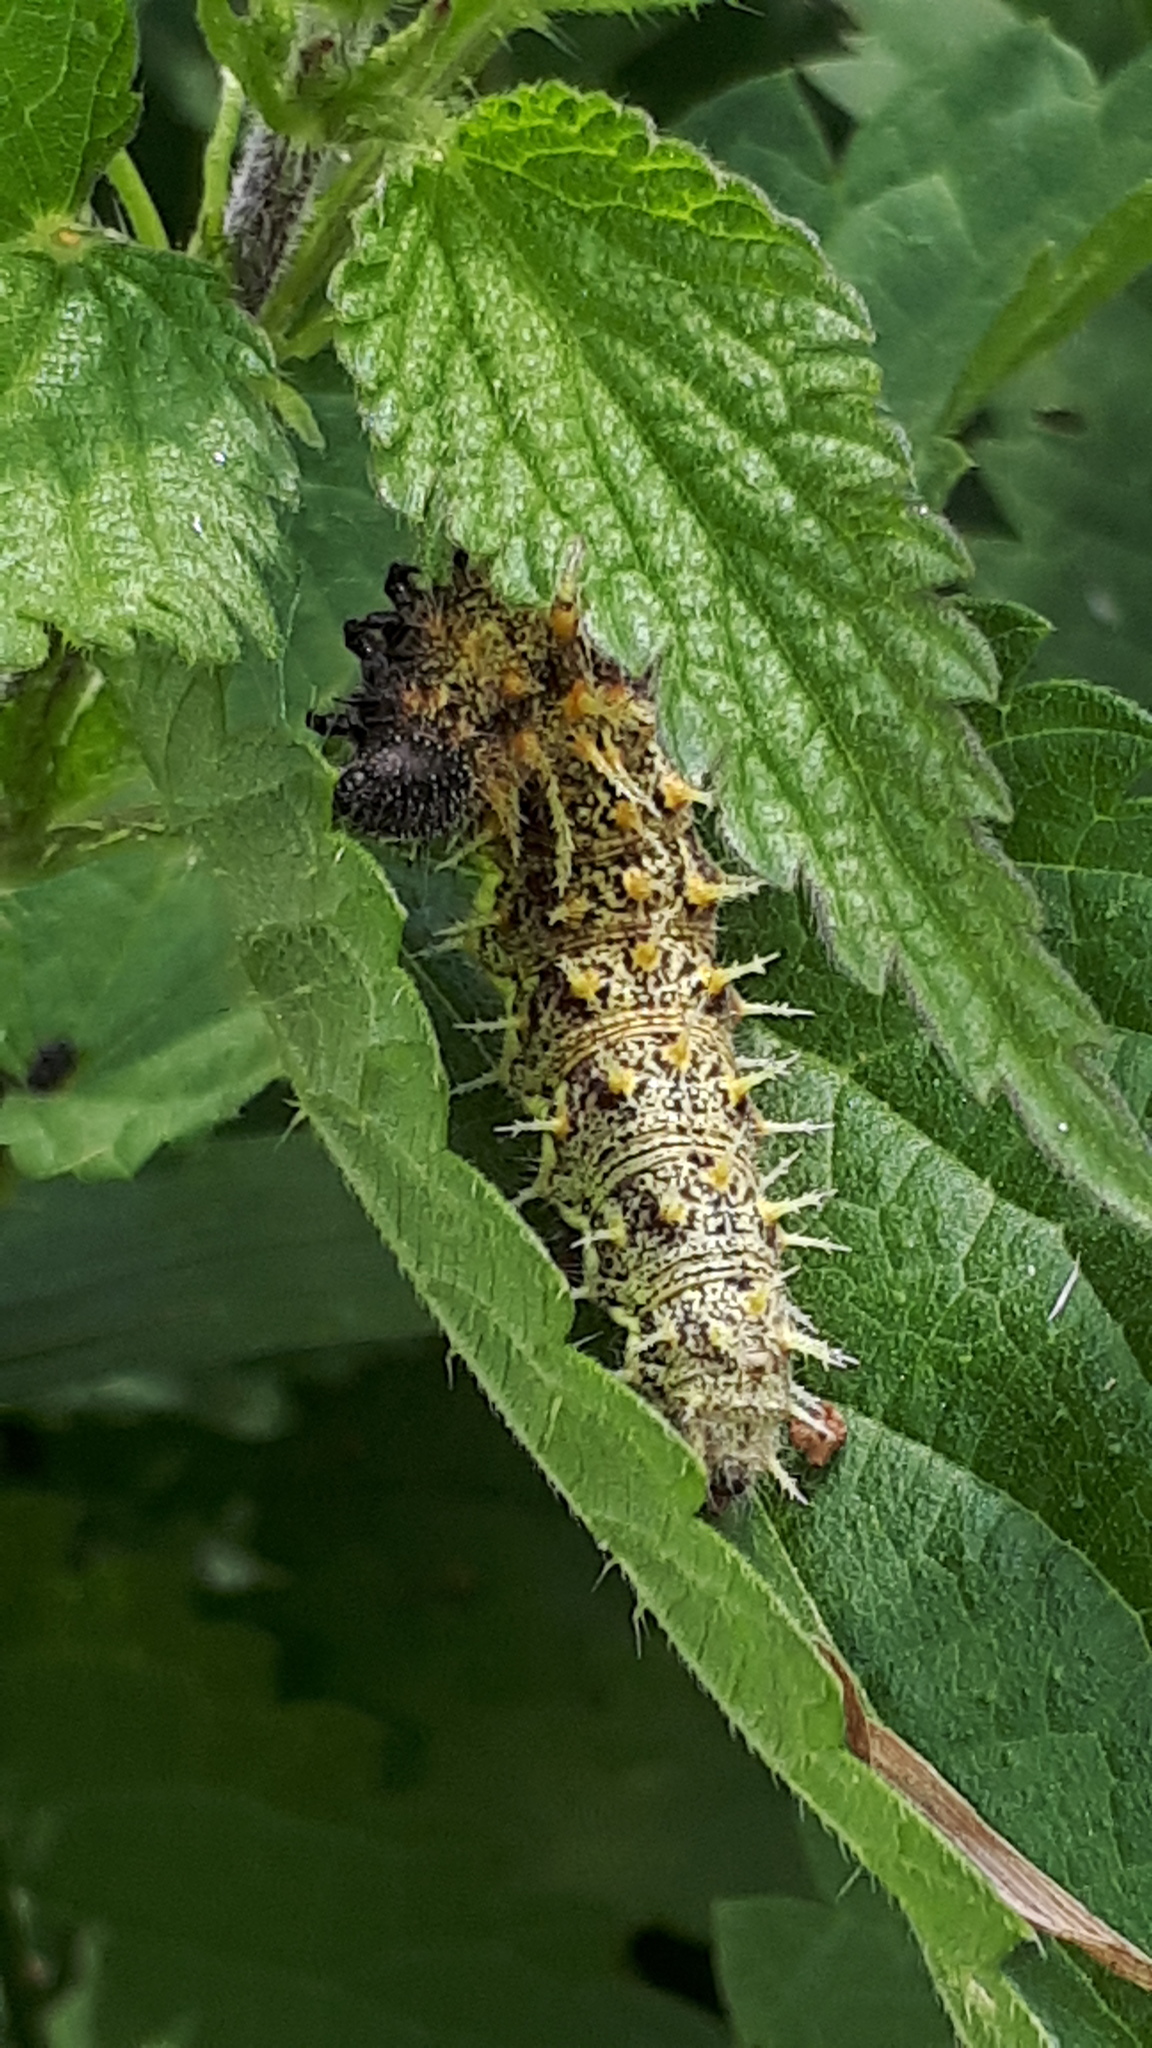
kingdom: Animalia
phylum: Arthropoda
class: Insecta
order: Lepidoptera
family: Nymphalidae
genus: Vanessa
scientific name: Vanessa atalanta
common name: Red admiral
